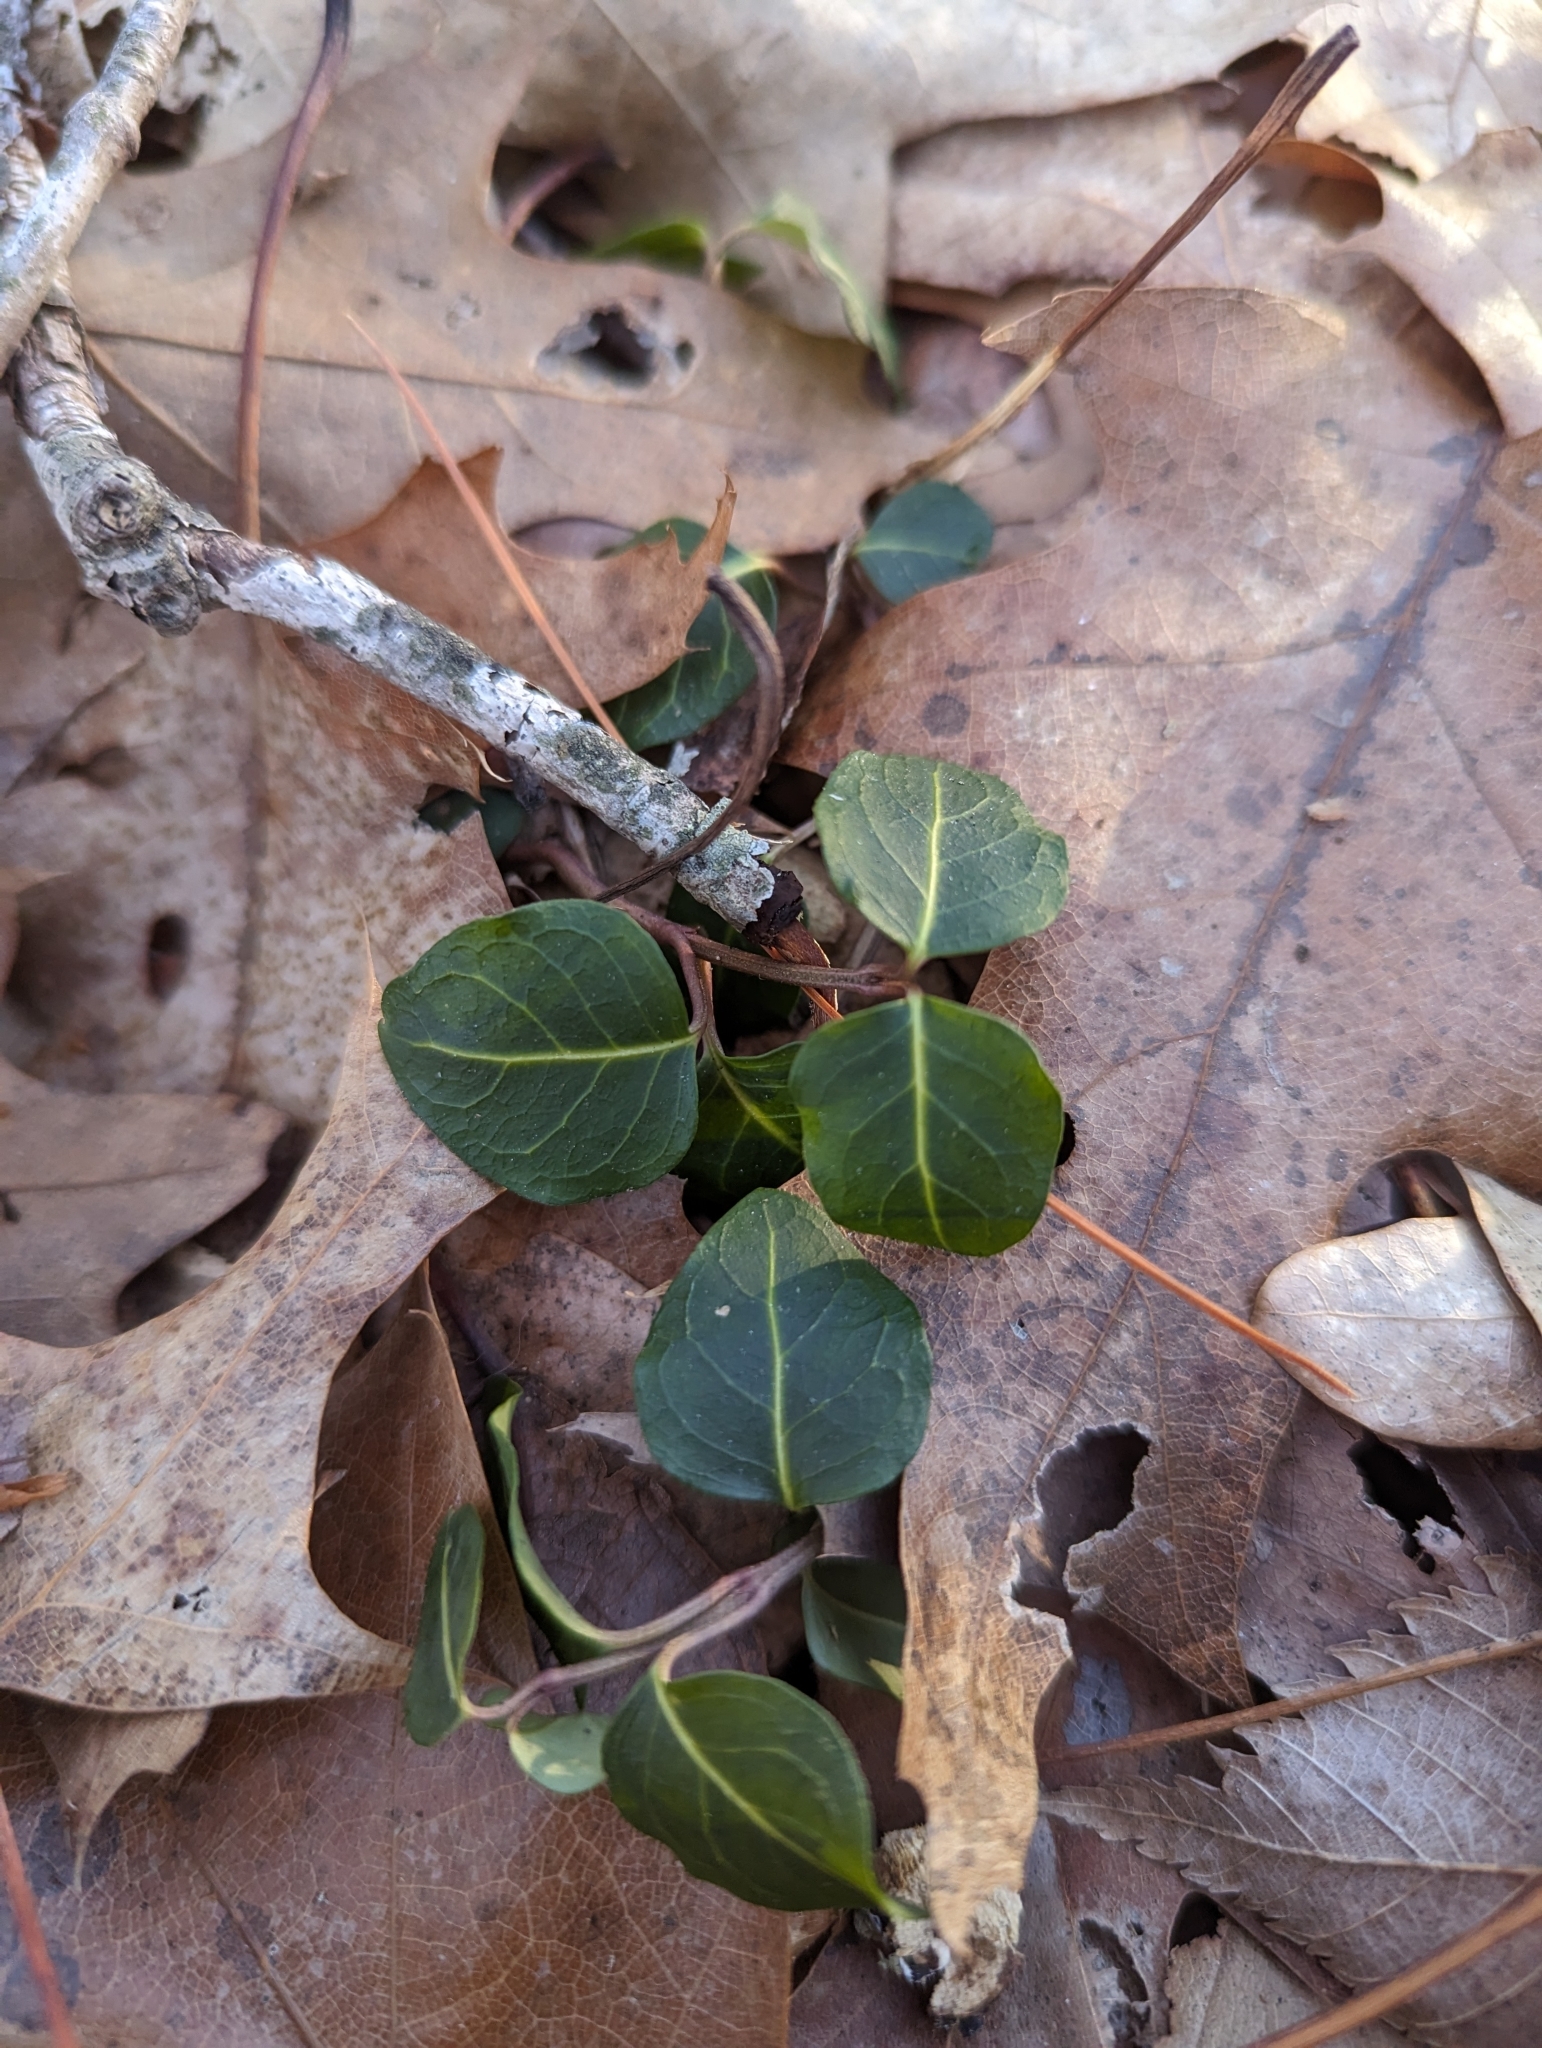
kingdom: Plantae
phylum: Tracheophyta
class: Magnoliopsida
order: Gentianales
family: Rubiaceae
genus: Mitchella
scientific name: Mitchella repens
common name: Partridge-berry
